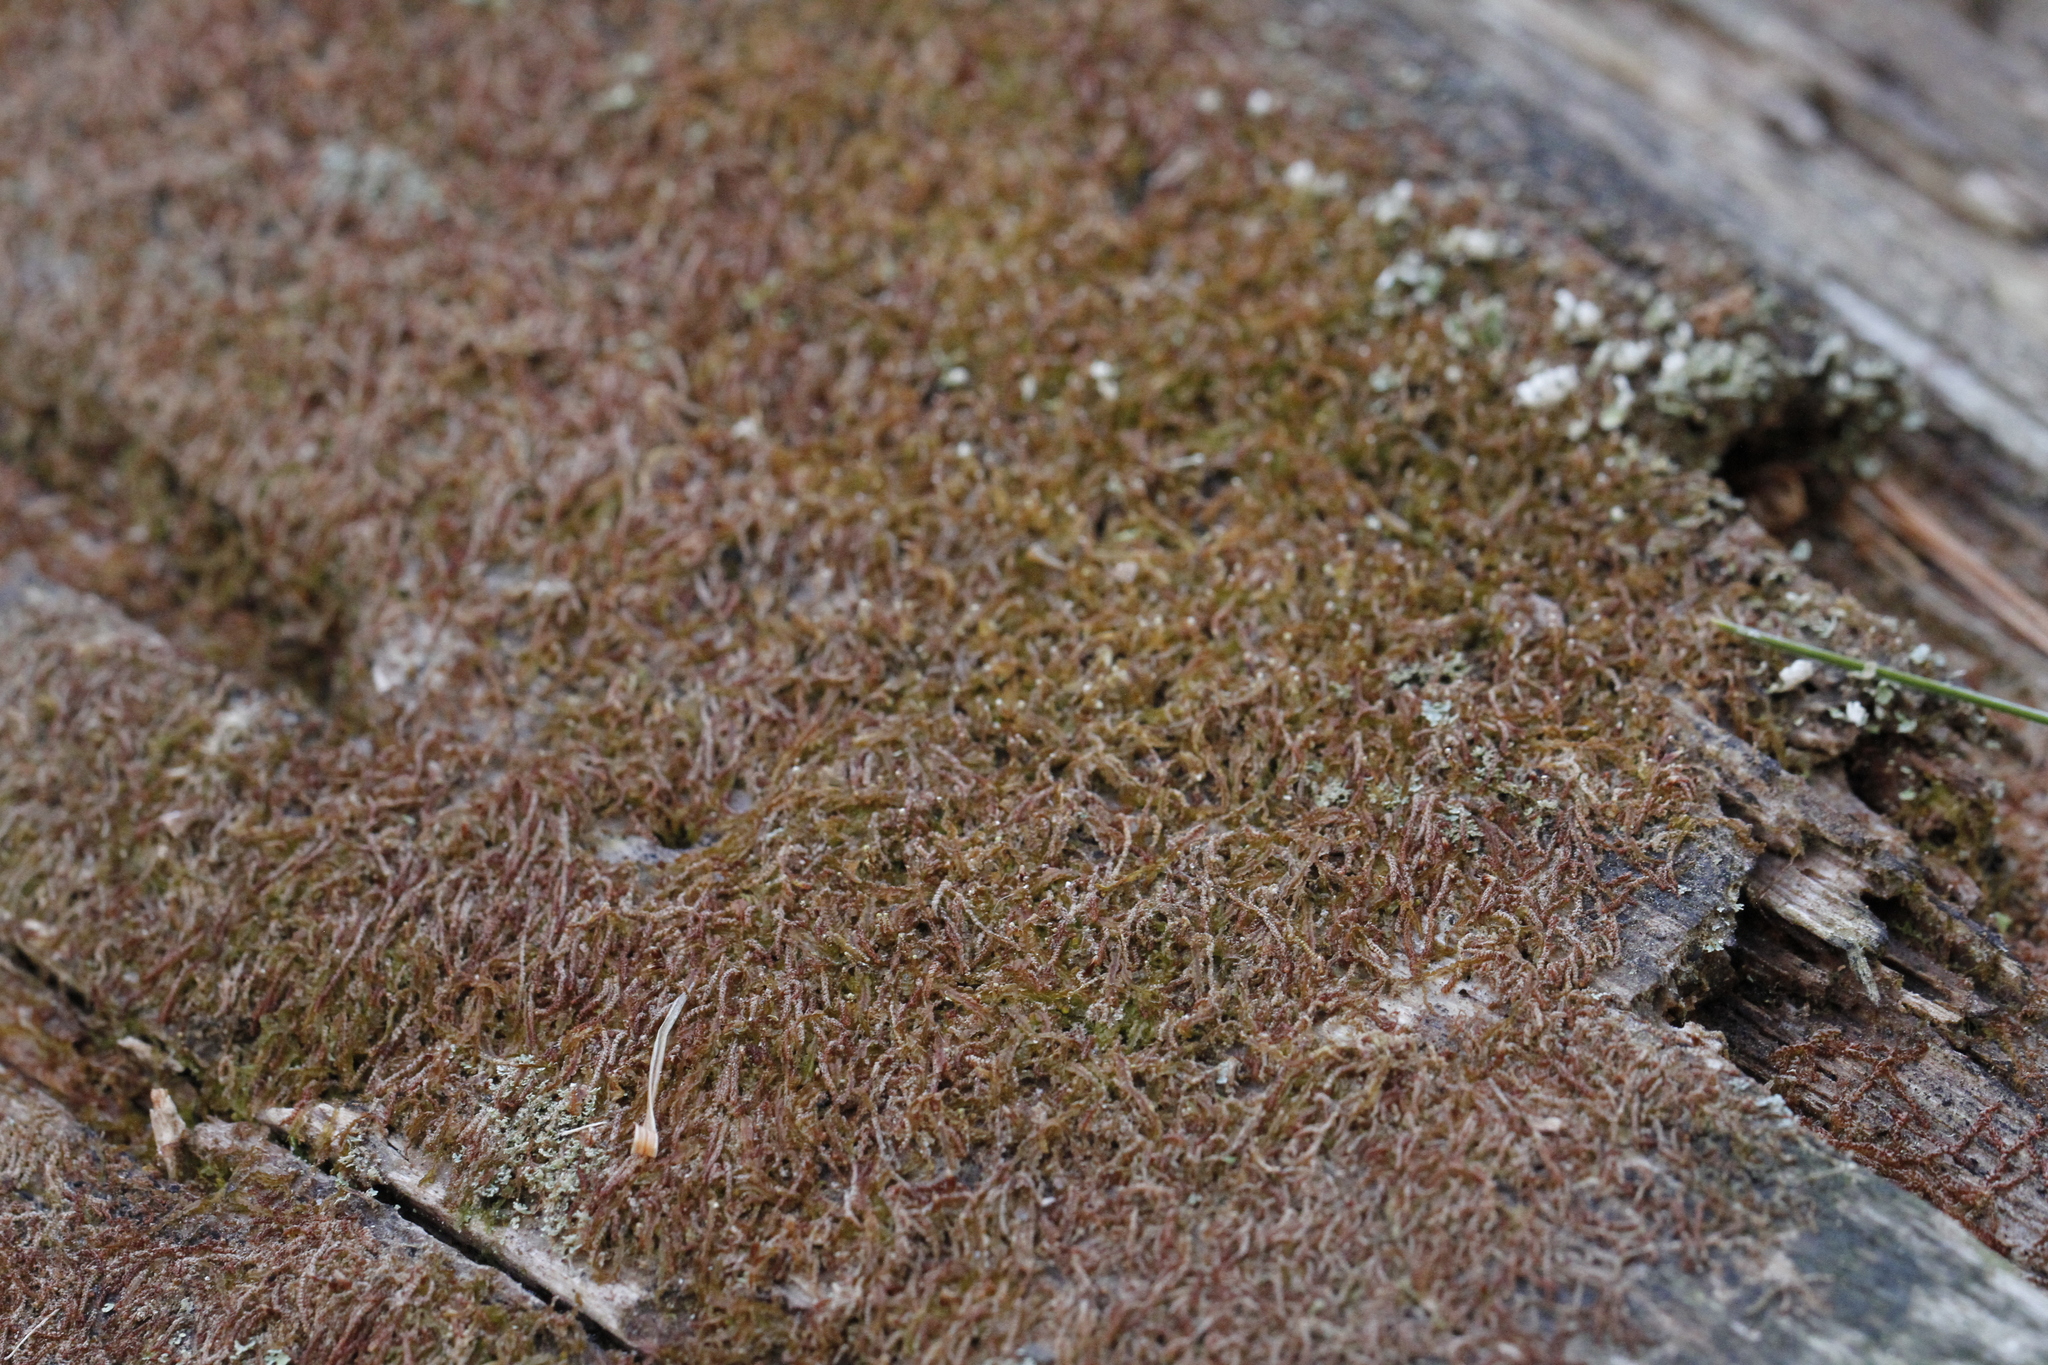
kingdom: Plantae
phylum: Marchantiophyta
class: Jungermanniopsida
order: Jungermanniales
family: Cephaloziaceae
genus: Nowellia
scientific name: Nowellia curvifolia
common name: Wood rustwort
